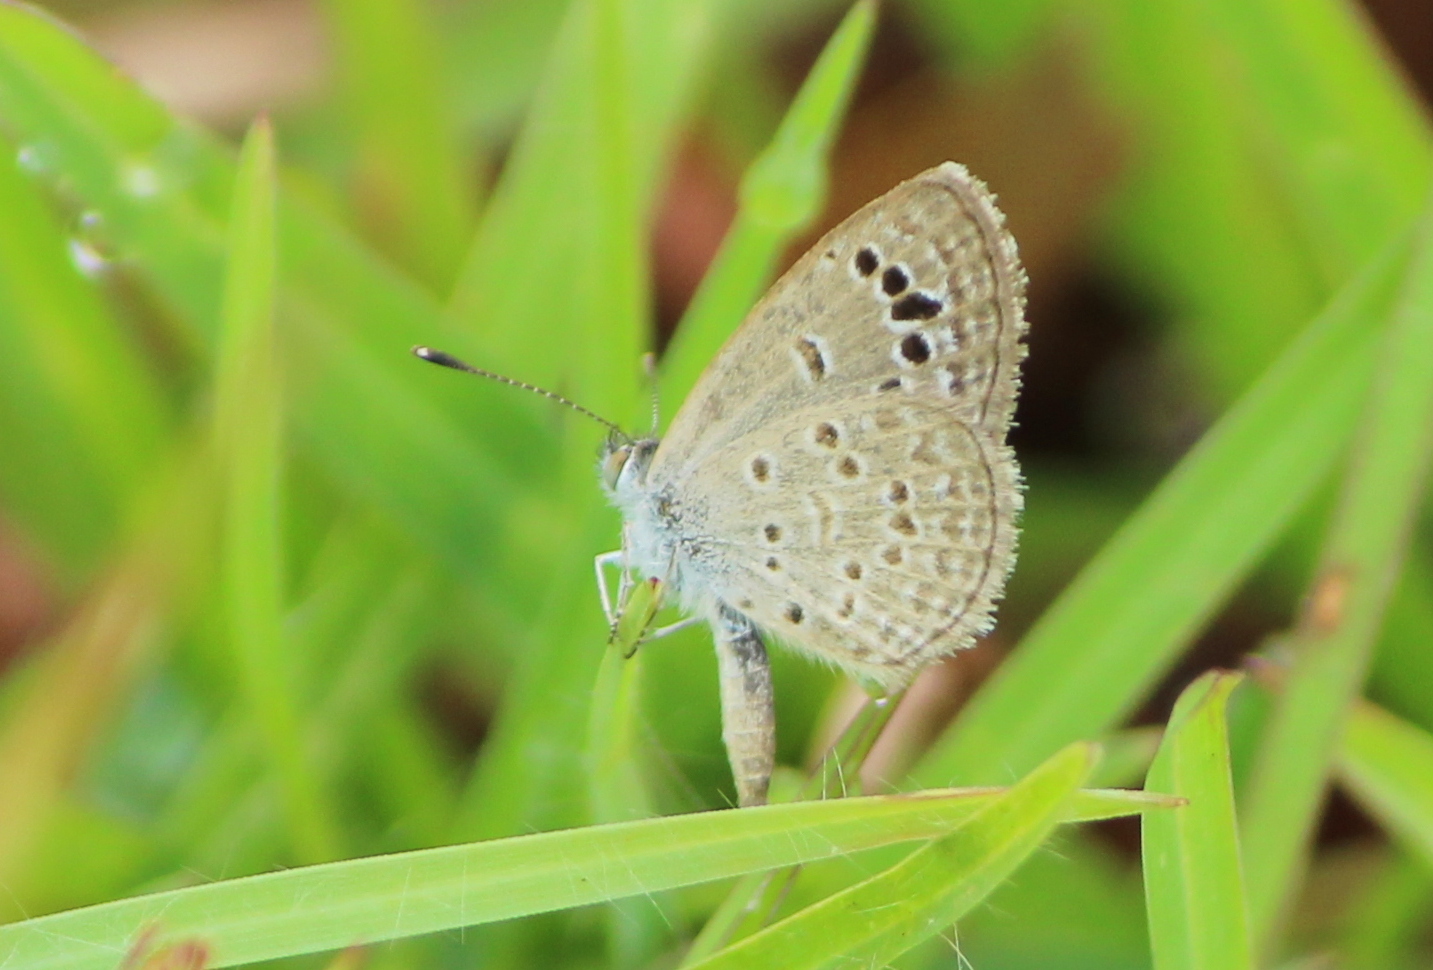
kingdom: Animalia
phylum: Arthropoda
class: Insecta
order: Lepidoptera
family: Lycaenidae
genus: Zizina
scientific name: Zizina otis
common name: Lesser grass blue
